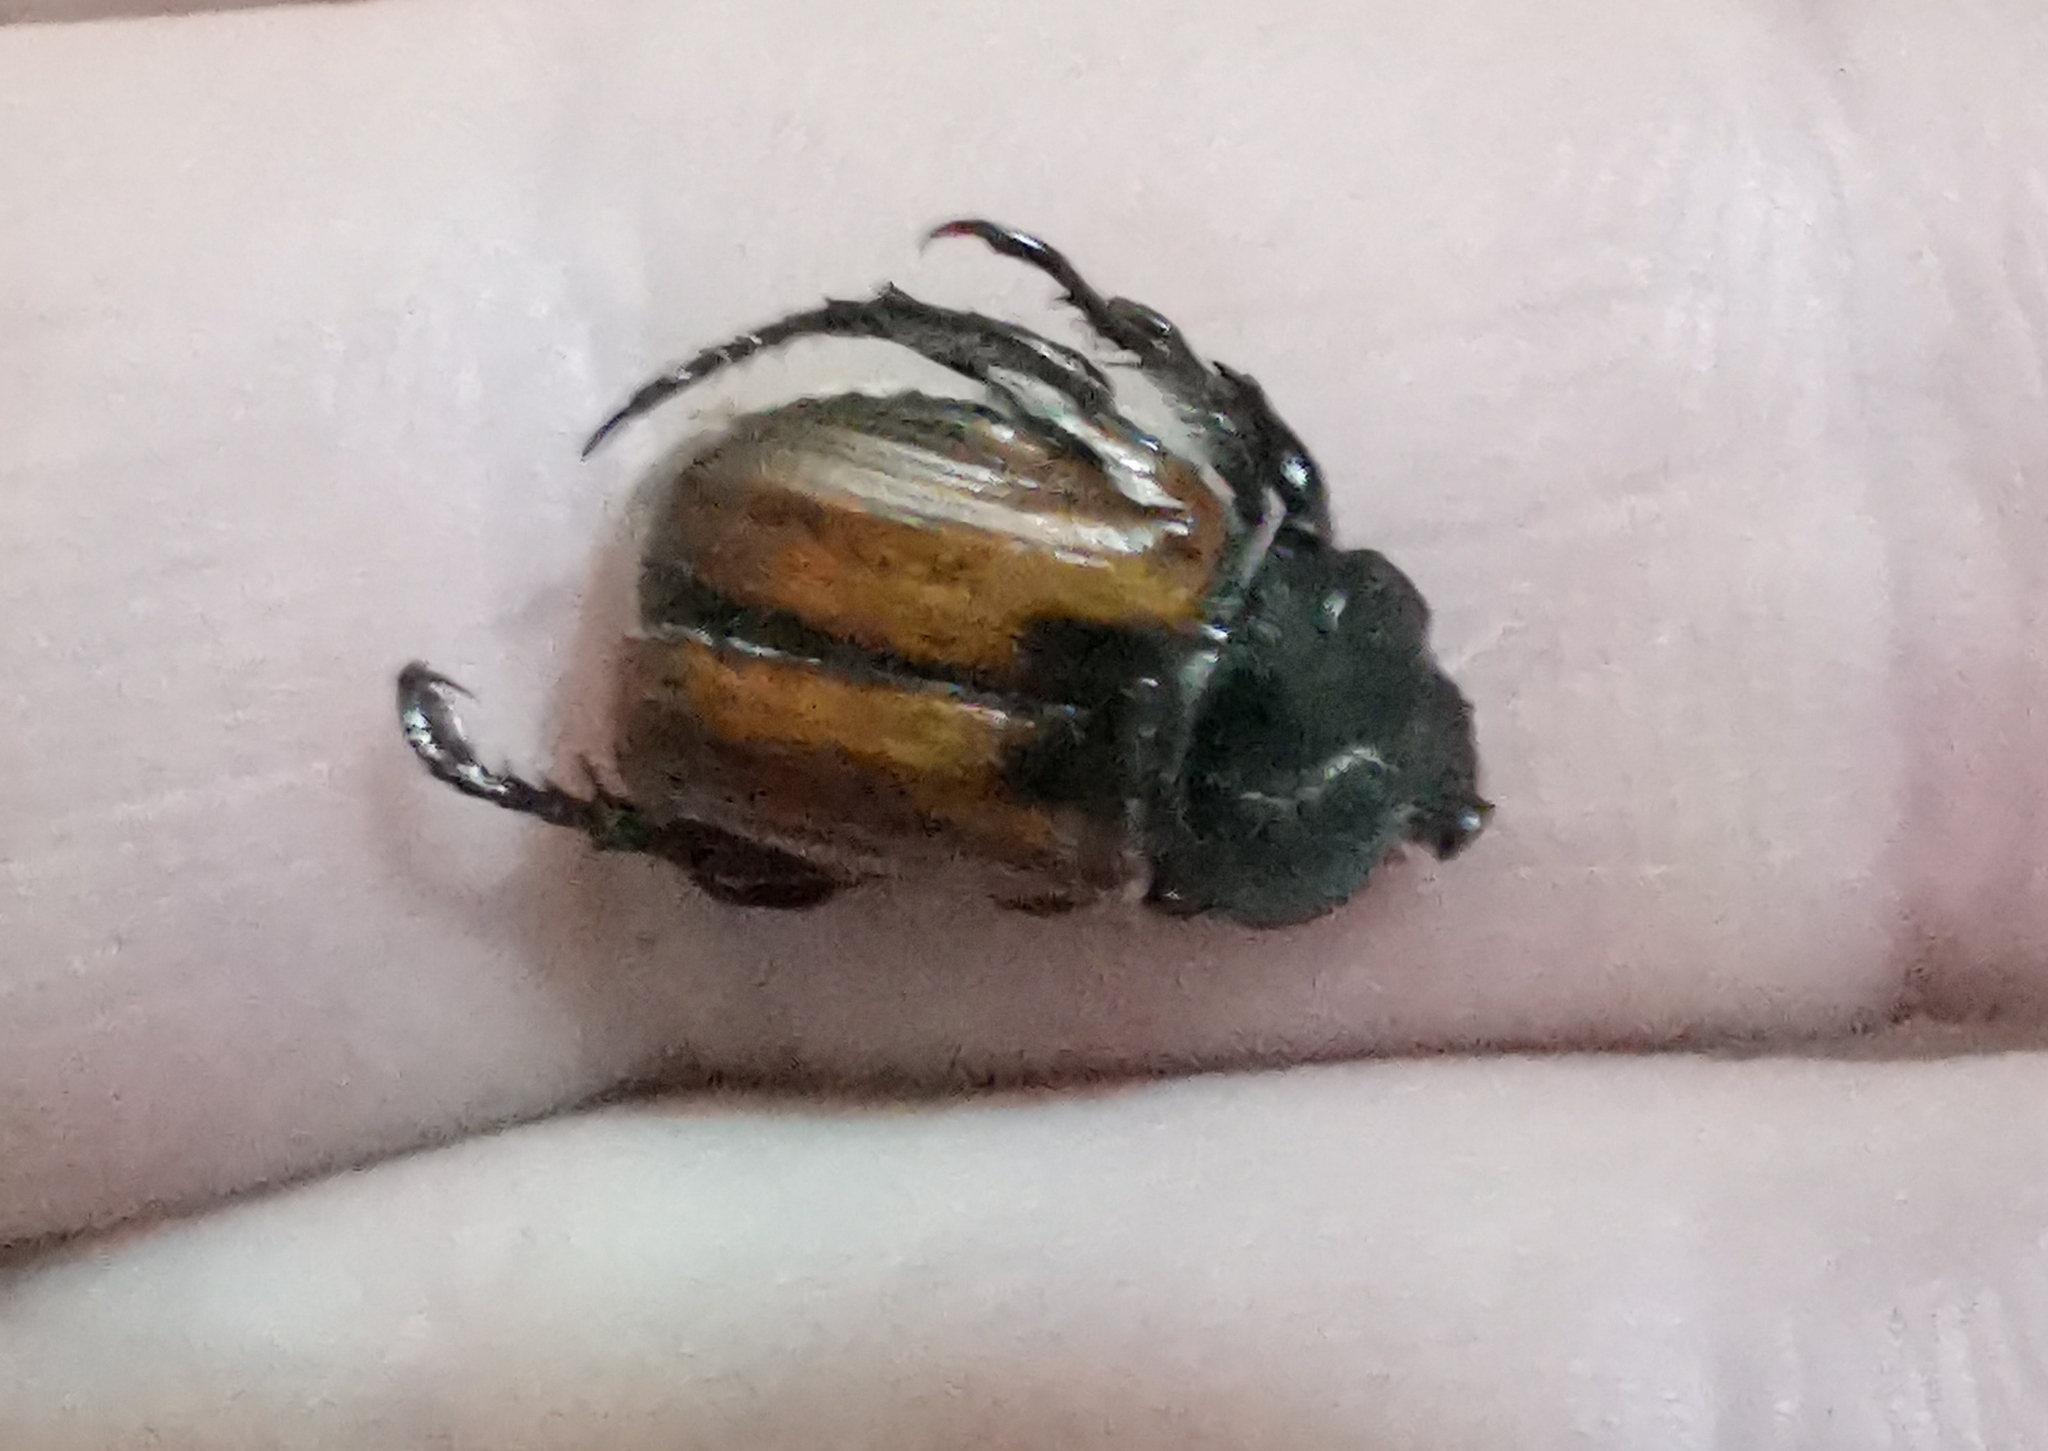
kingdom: Animalia
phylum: Arthropoda
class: Insecta
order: Coleoptera
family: Scarabaeidae
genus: Anisoplia
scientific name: Anisoplia austriaca
